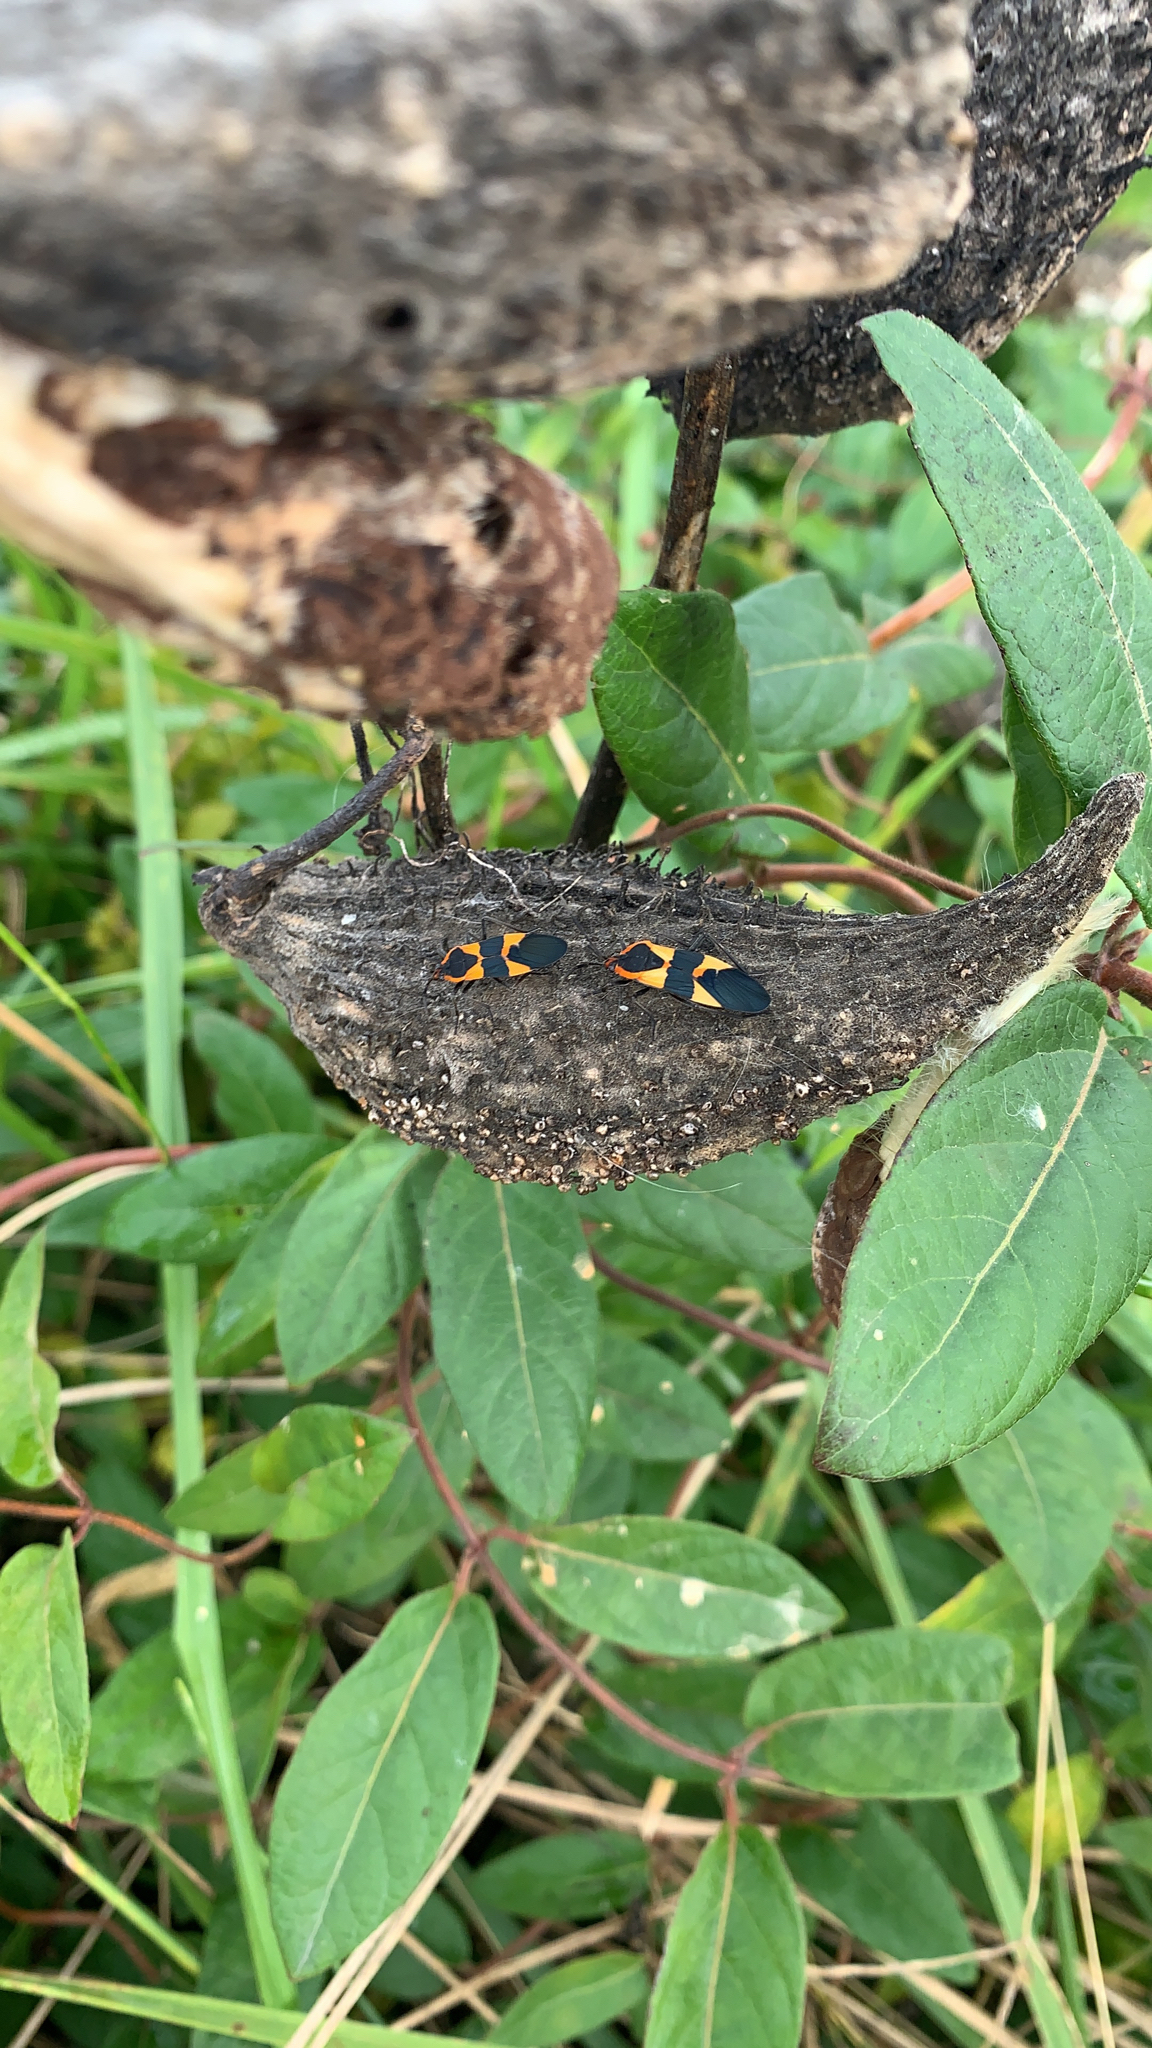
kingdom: Animalia
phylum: Arthropoda
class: Insecta
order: Hemiptera
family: Lygaeidae
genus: Oncopeltus
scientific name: Oncopeltus fasciatus
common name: Large milkweed bug
